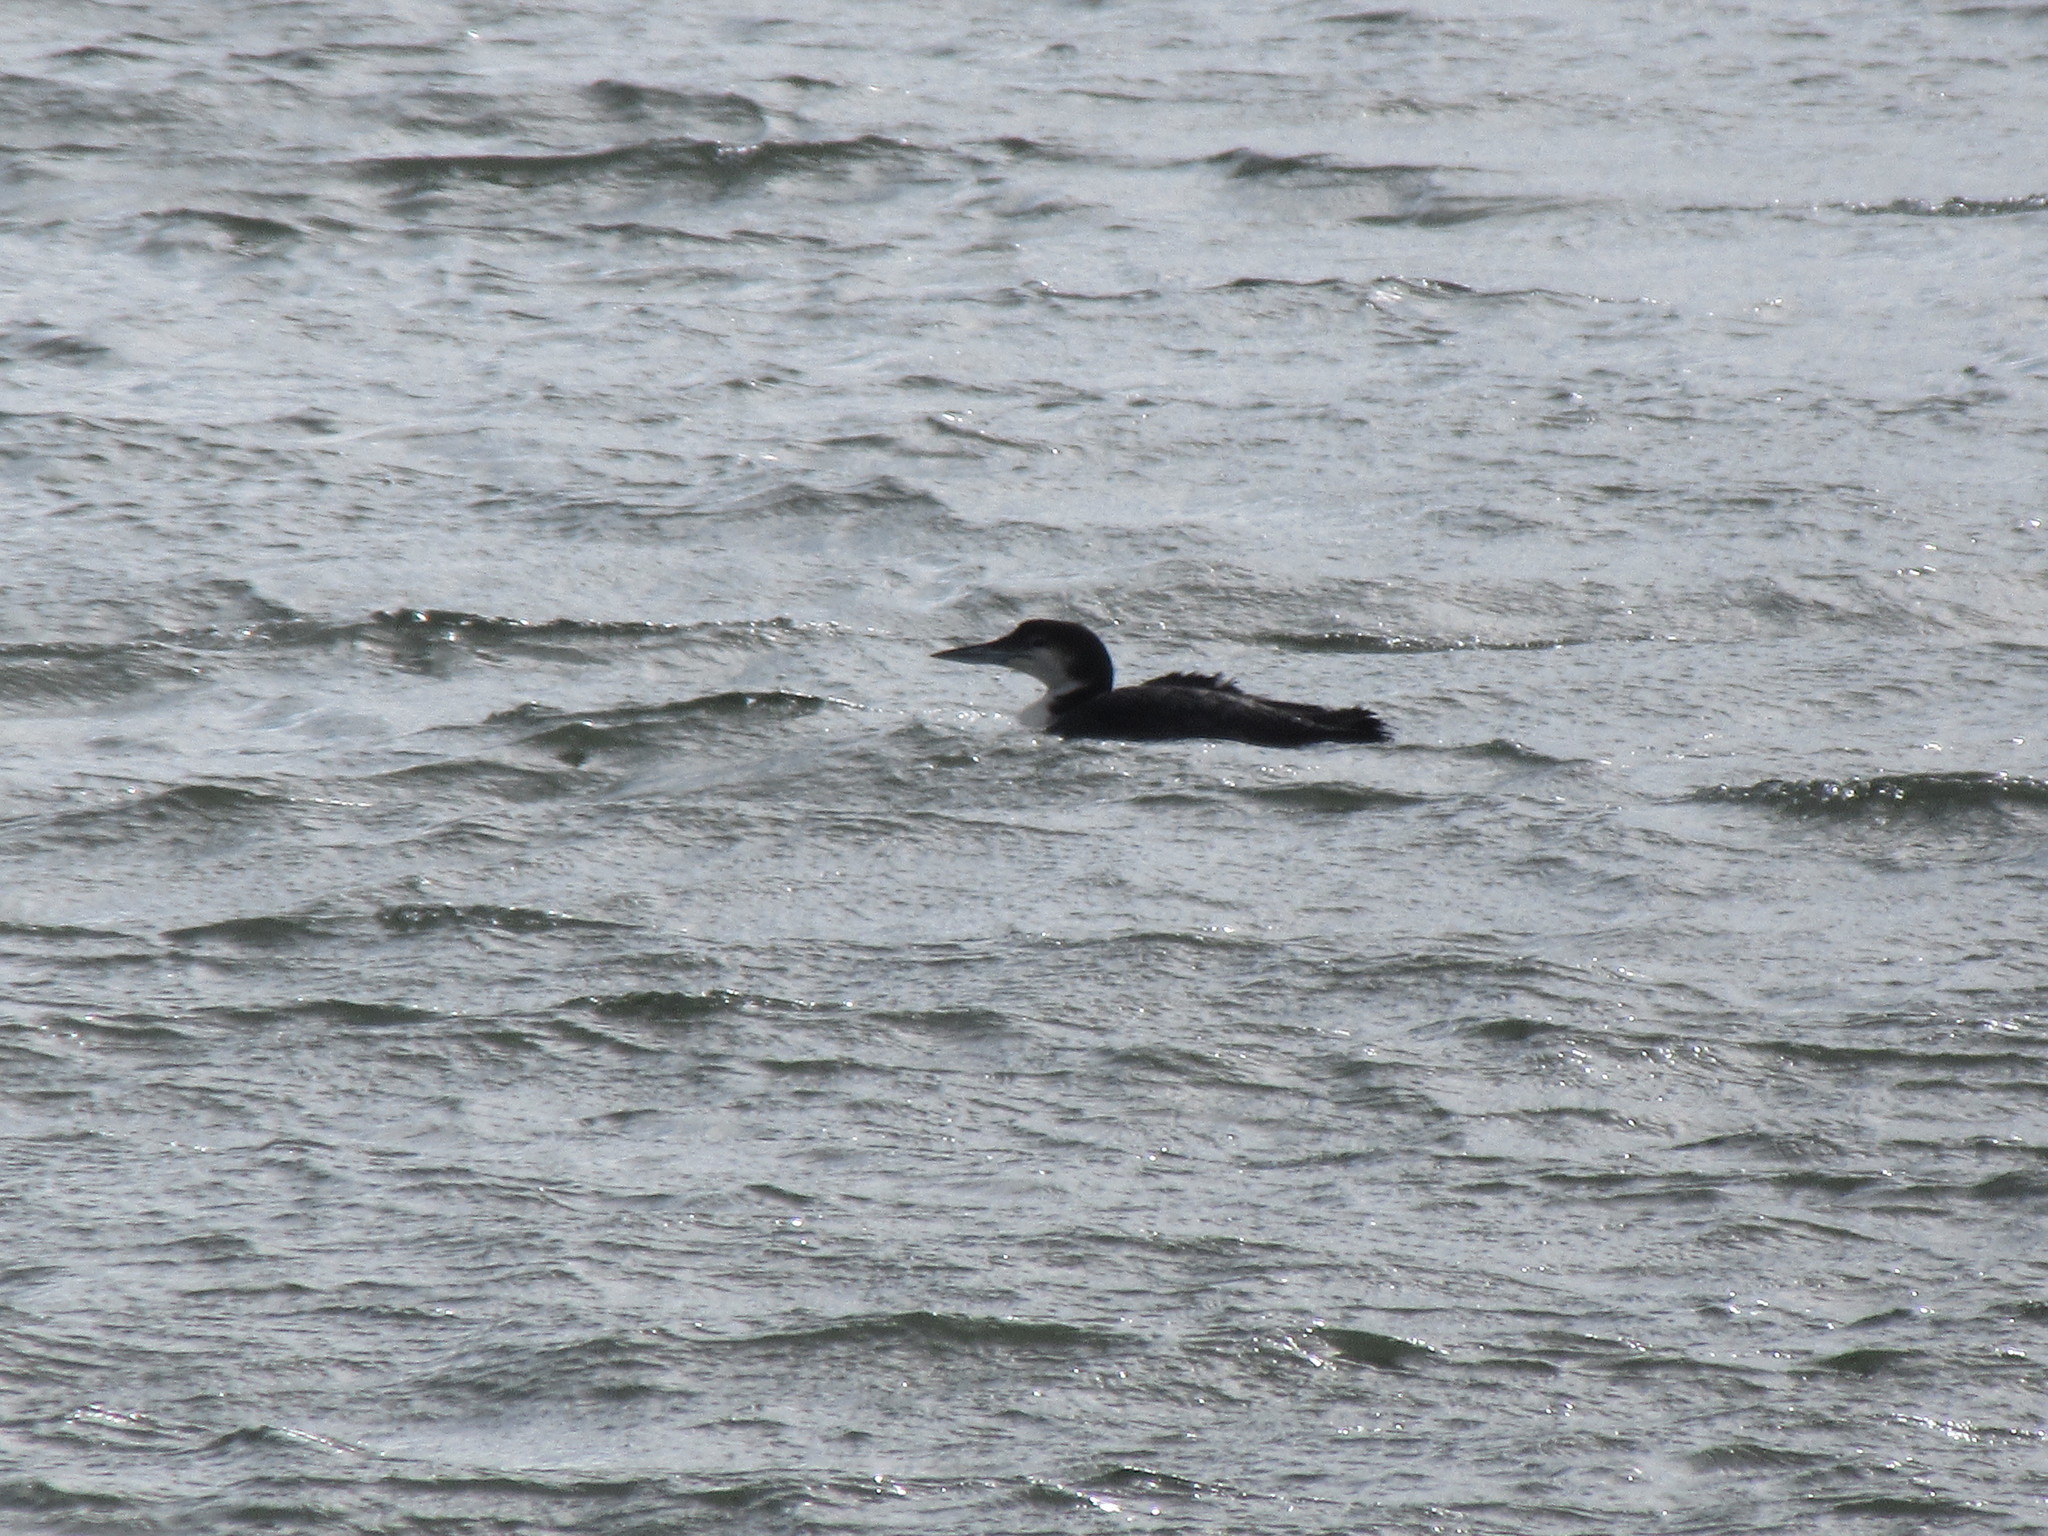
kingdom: Animalia
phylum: Chordata
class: Aves
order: Gaviiformes
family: Gaviidae
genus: Gavia
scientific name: Gavia immer
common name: Common loon
